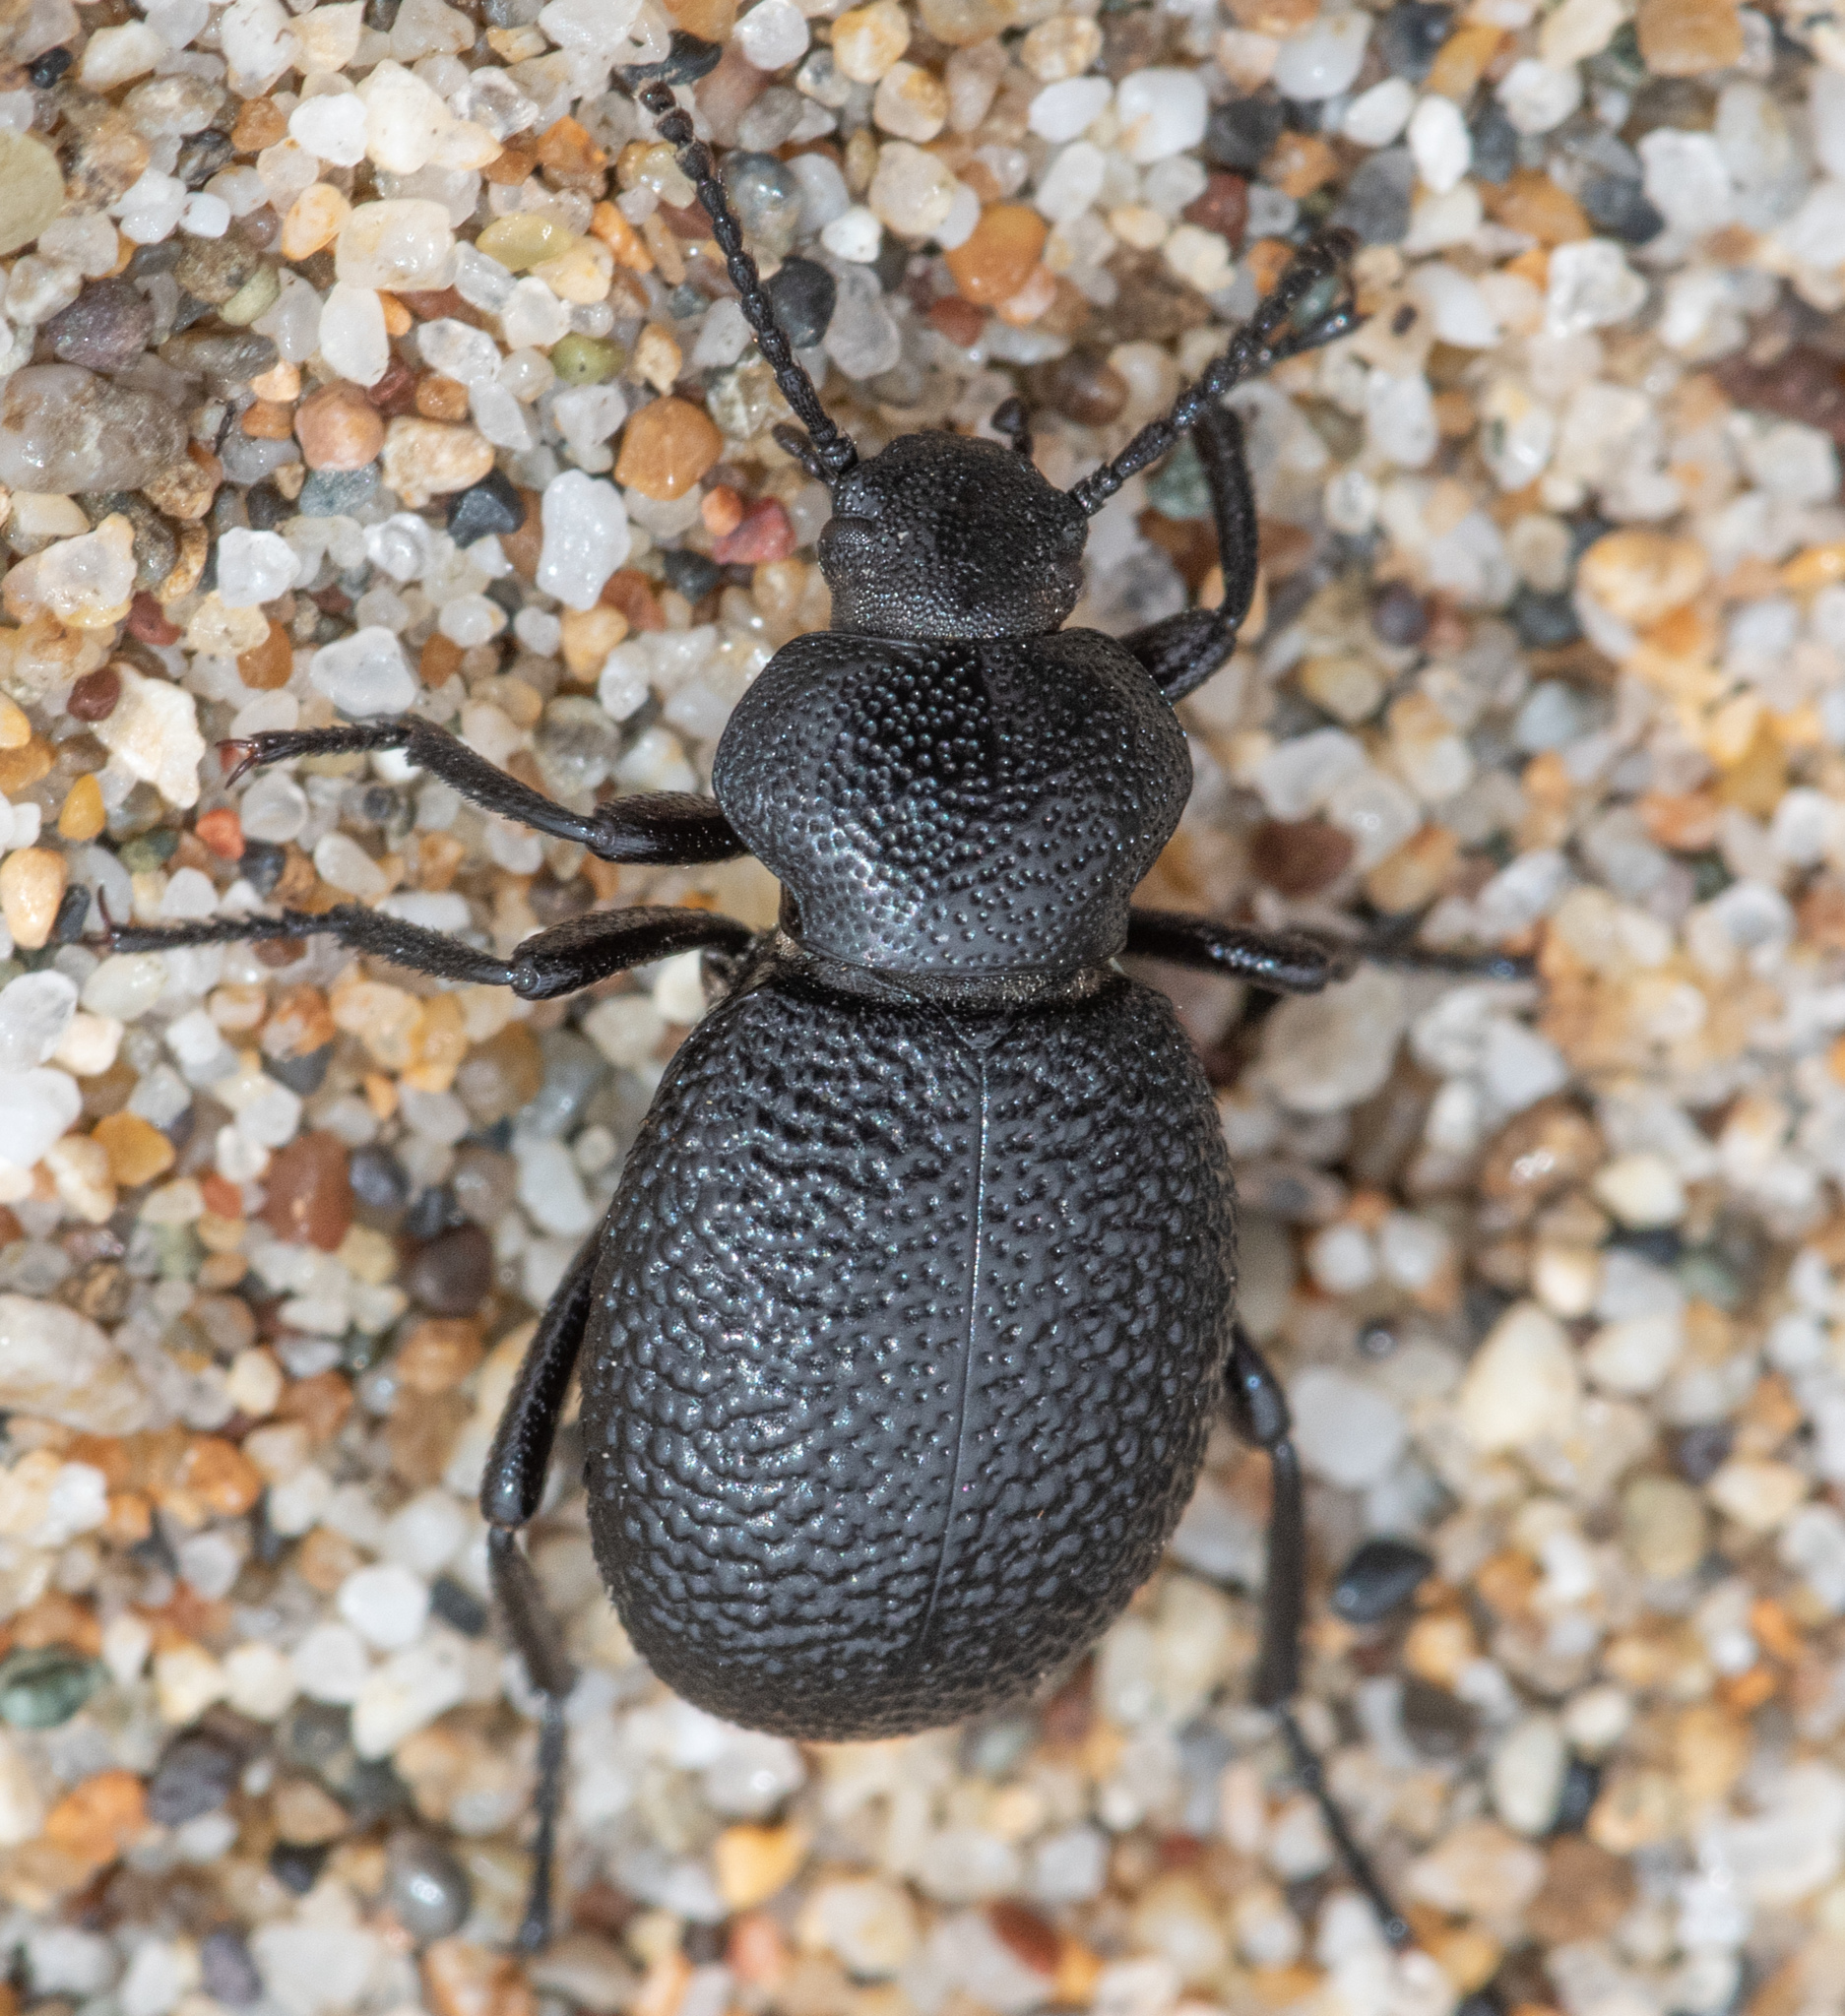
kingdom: Animalia
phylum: Arthropoda
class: Insecta
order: Coleoptera
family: Tenebrionidae
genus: Eleodes
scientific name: Eleodes tuberculata
